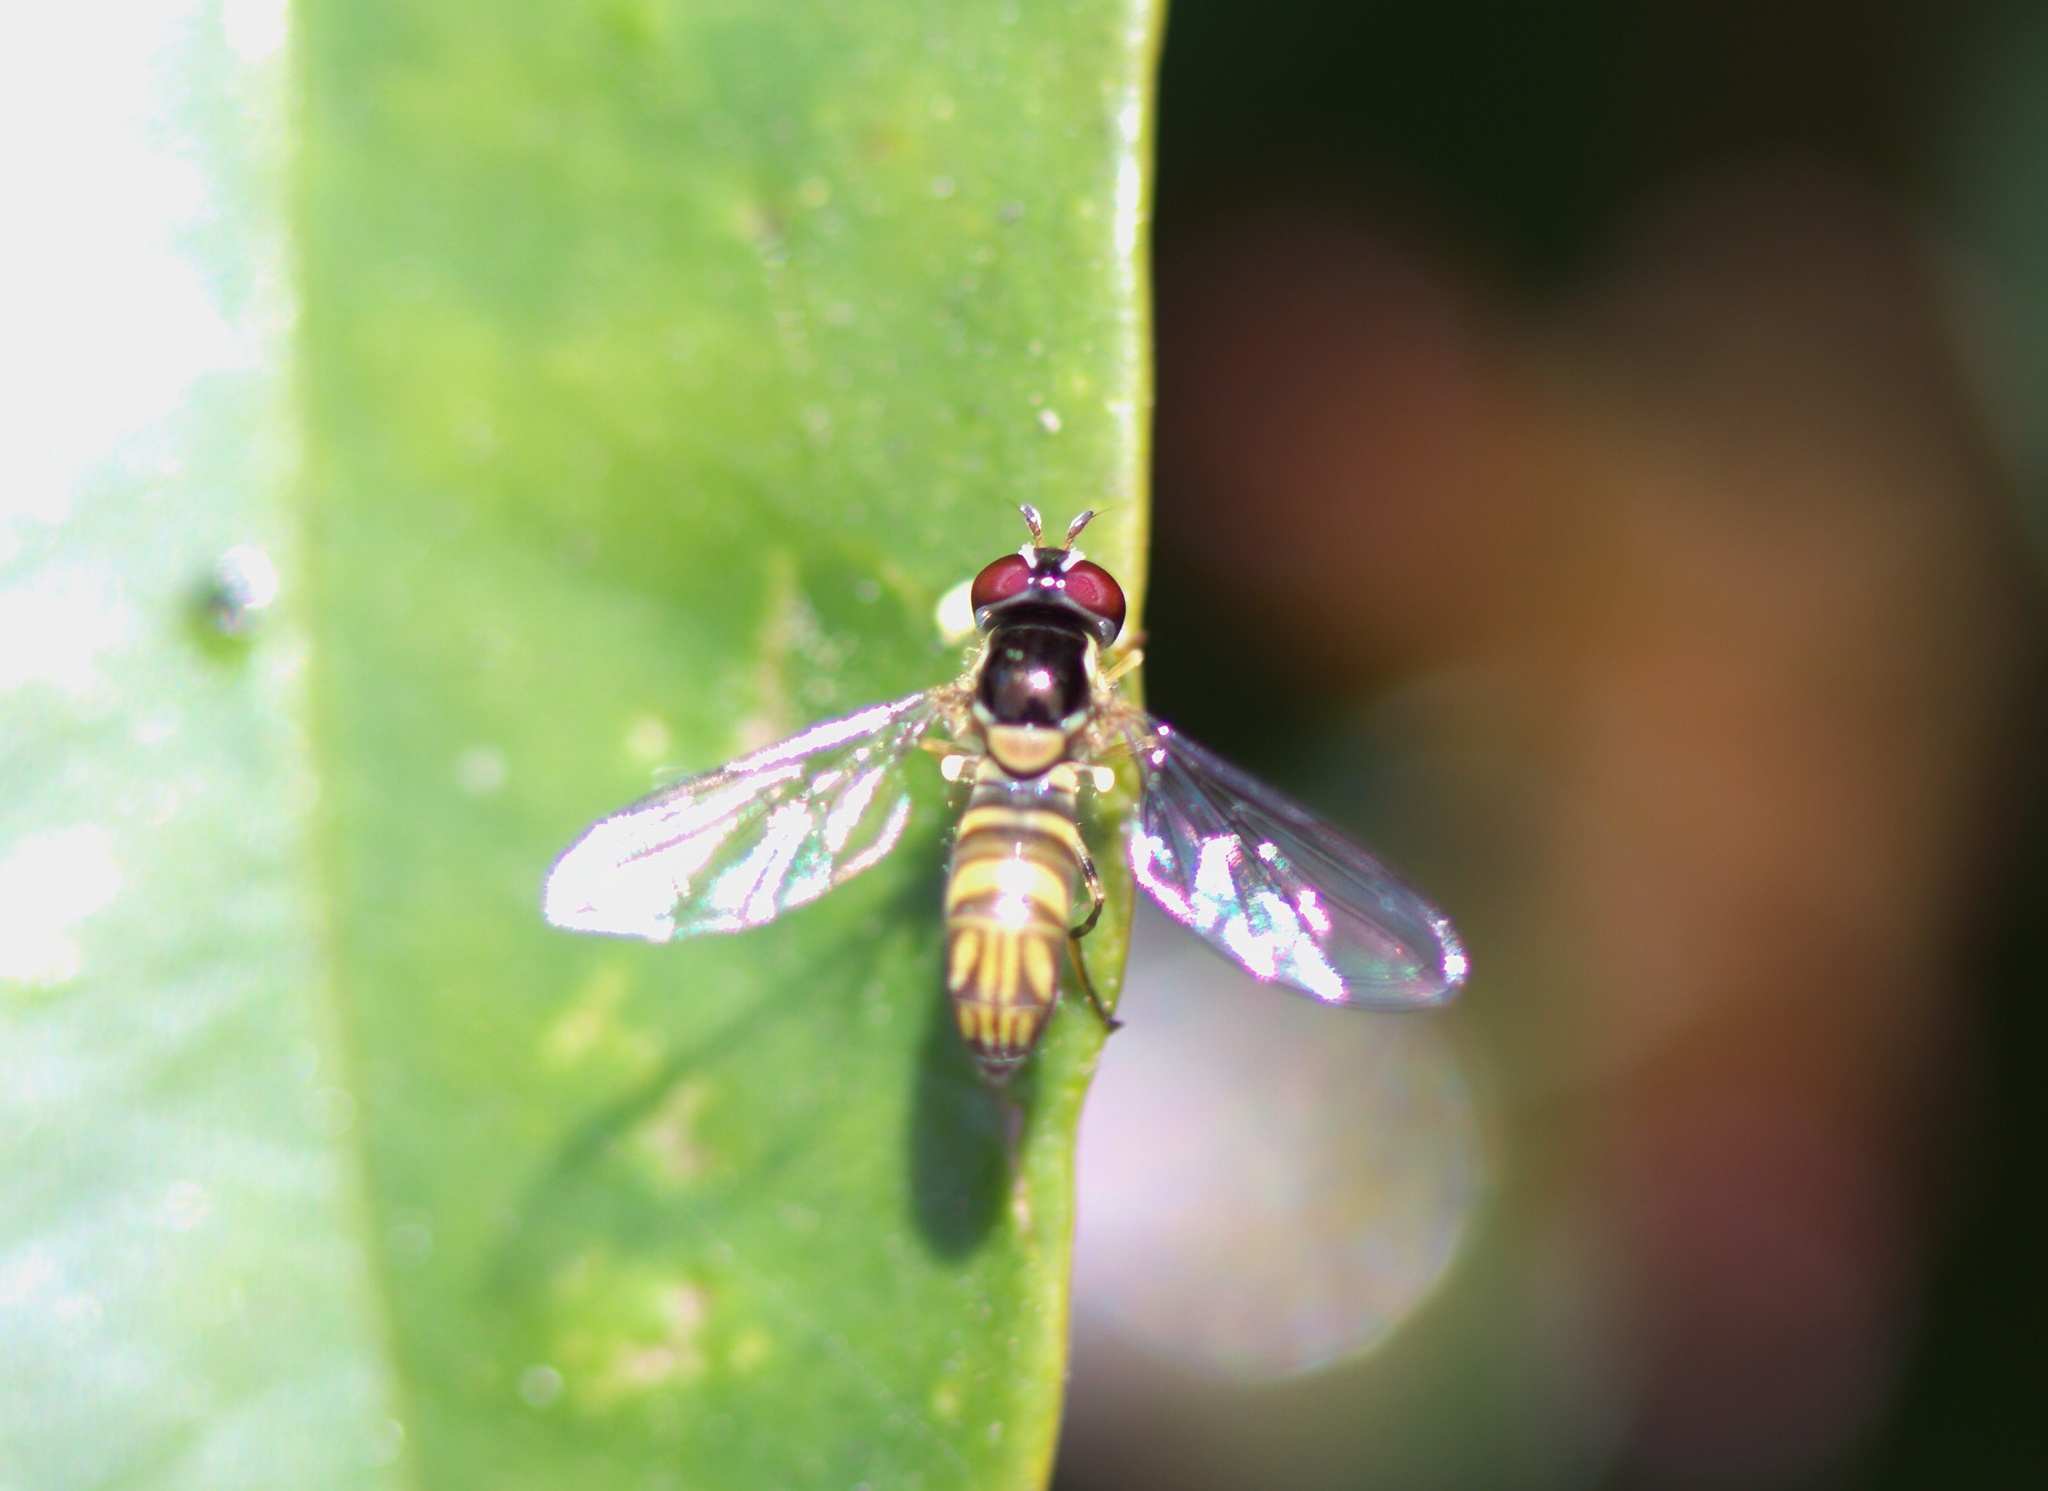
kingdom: Animalia
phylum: Arthropoda
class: Insecta
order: Diptera
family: Syrphidae
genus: Allograpta
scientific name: Allograpta obliqua
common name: Common oblique syrphid
